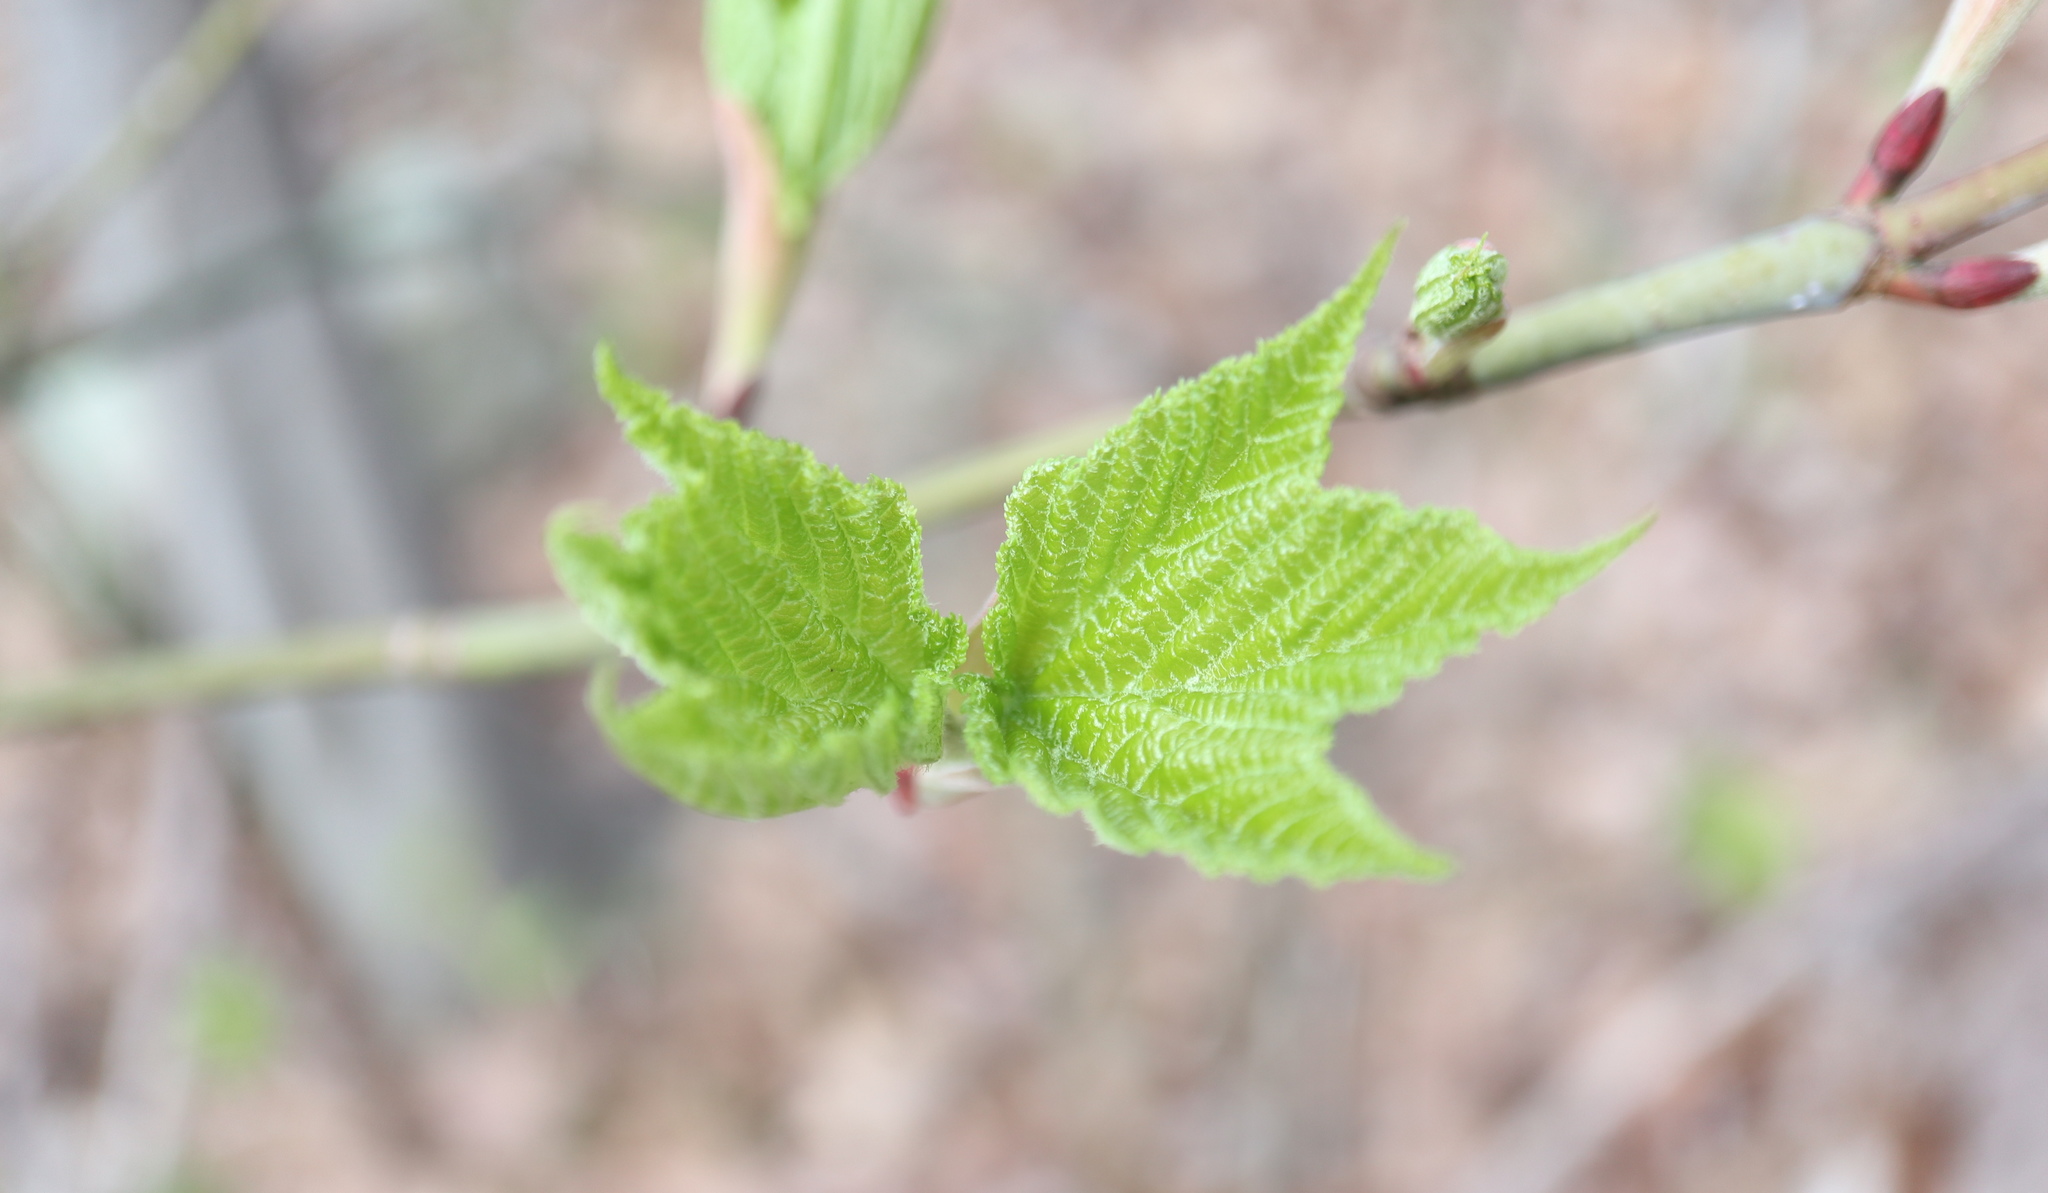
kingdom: Plantae
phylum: Tracheophyta
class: Magnoliopsida
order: Sapindales
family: Sapindaceae
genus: Acer
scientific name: Acer pensylvanicum
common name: Moosewood
